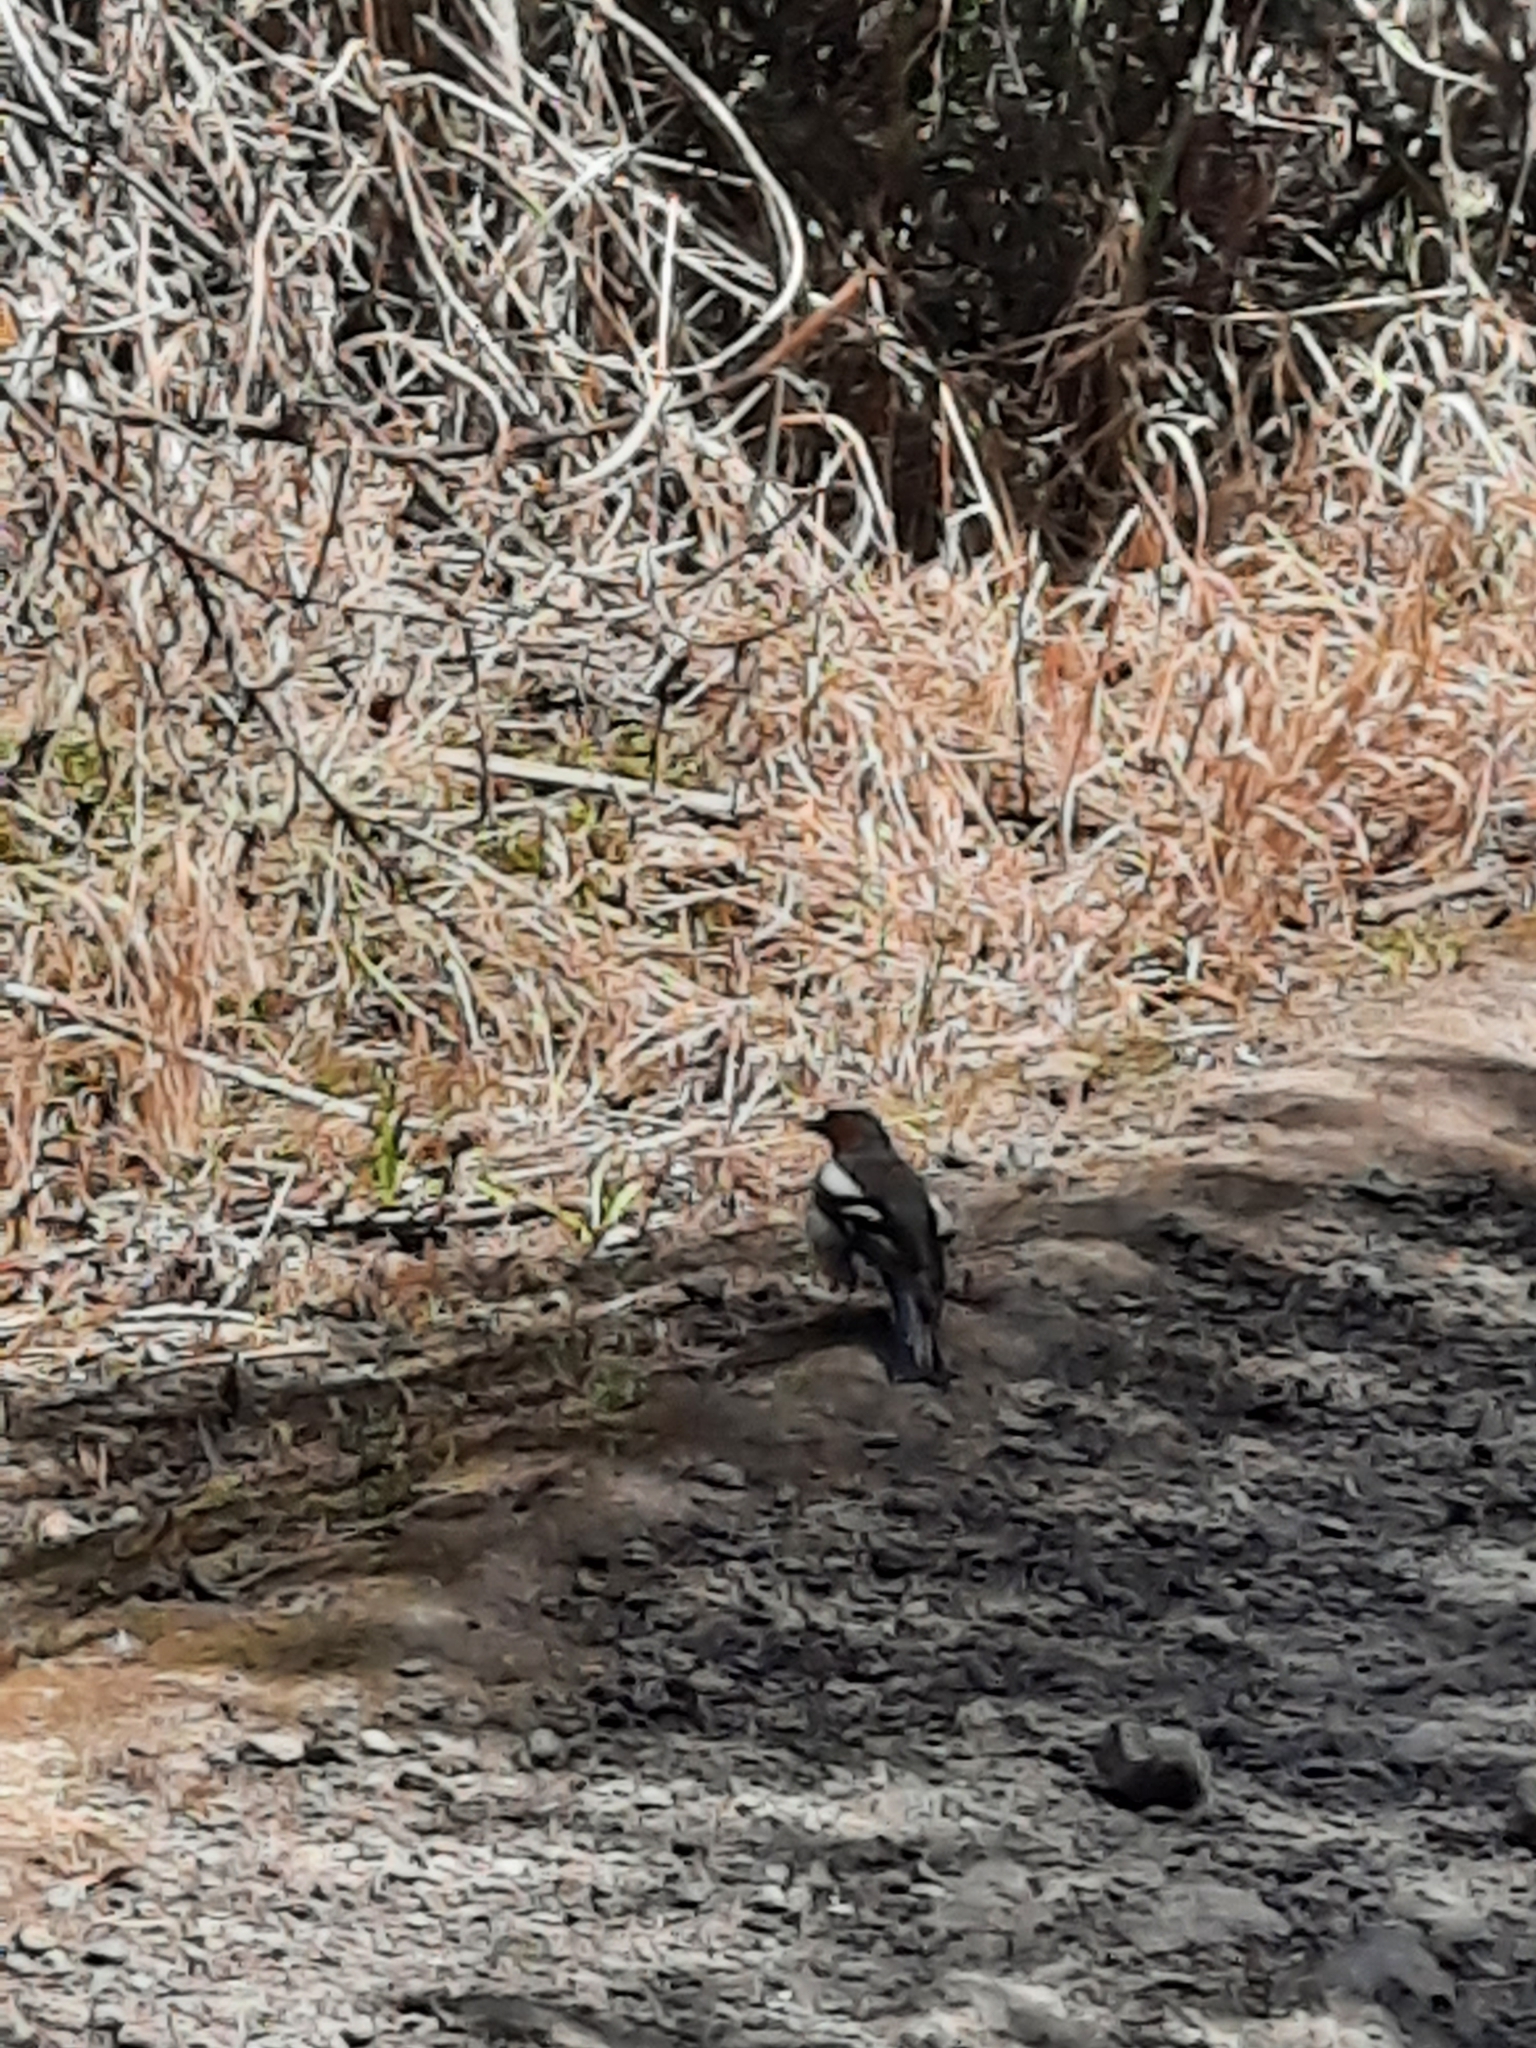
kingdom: Animalia
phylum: Chordata
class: Aves
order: Passeriformes
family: Fringillidae
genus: Fringilla
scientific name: Fringilla coelebs
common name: Common chaffinch
